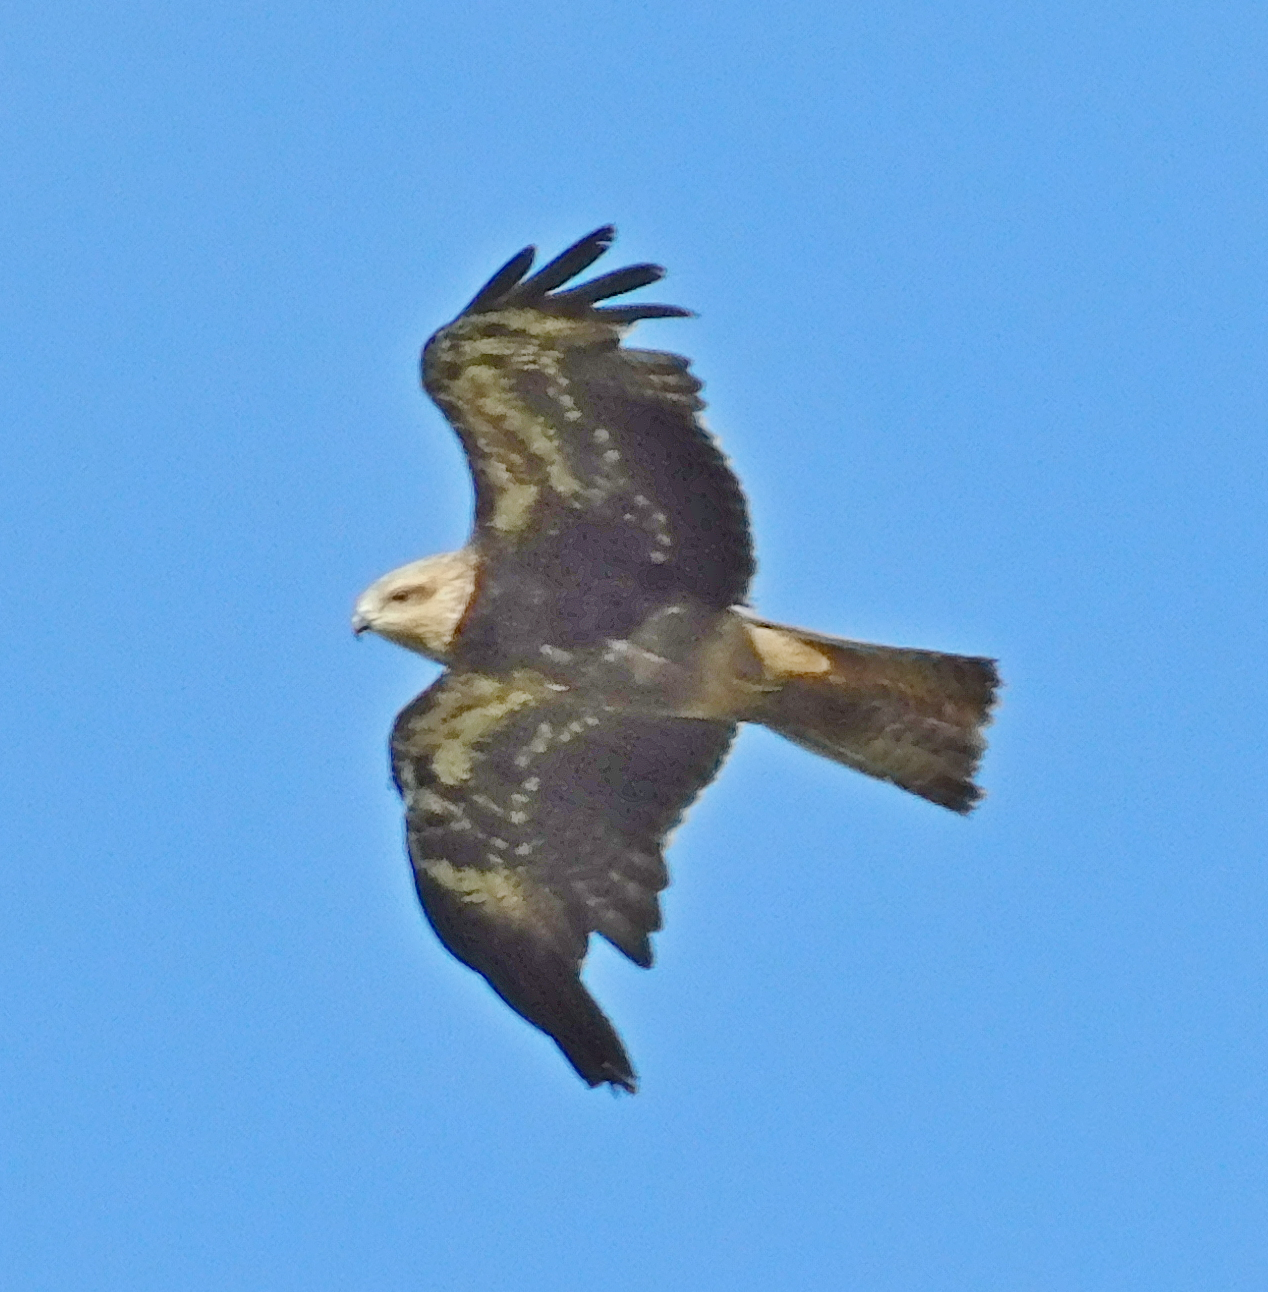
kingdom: Animalia
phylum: Chordata
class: Aves
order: Accipitriformes
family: Accipitridae
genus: Milvus
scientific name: Milvus migrans
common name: Black kite
